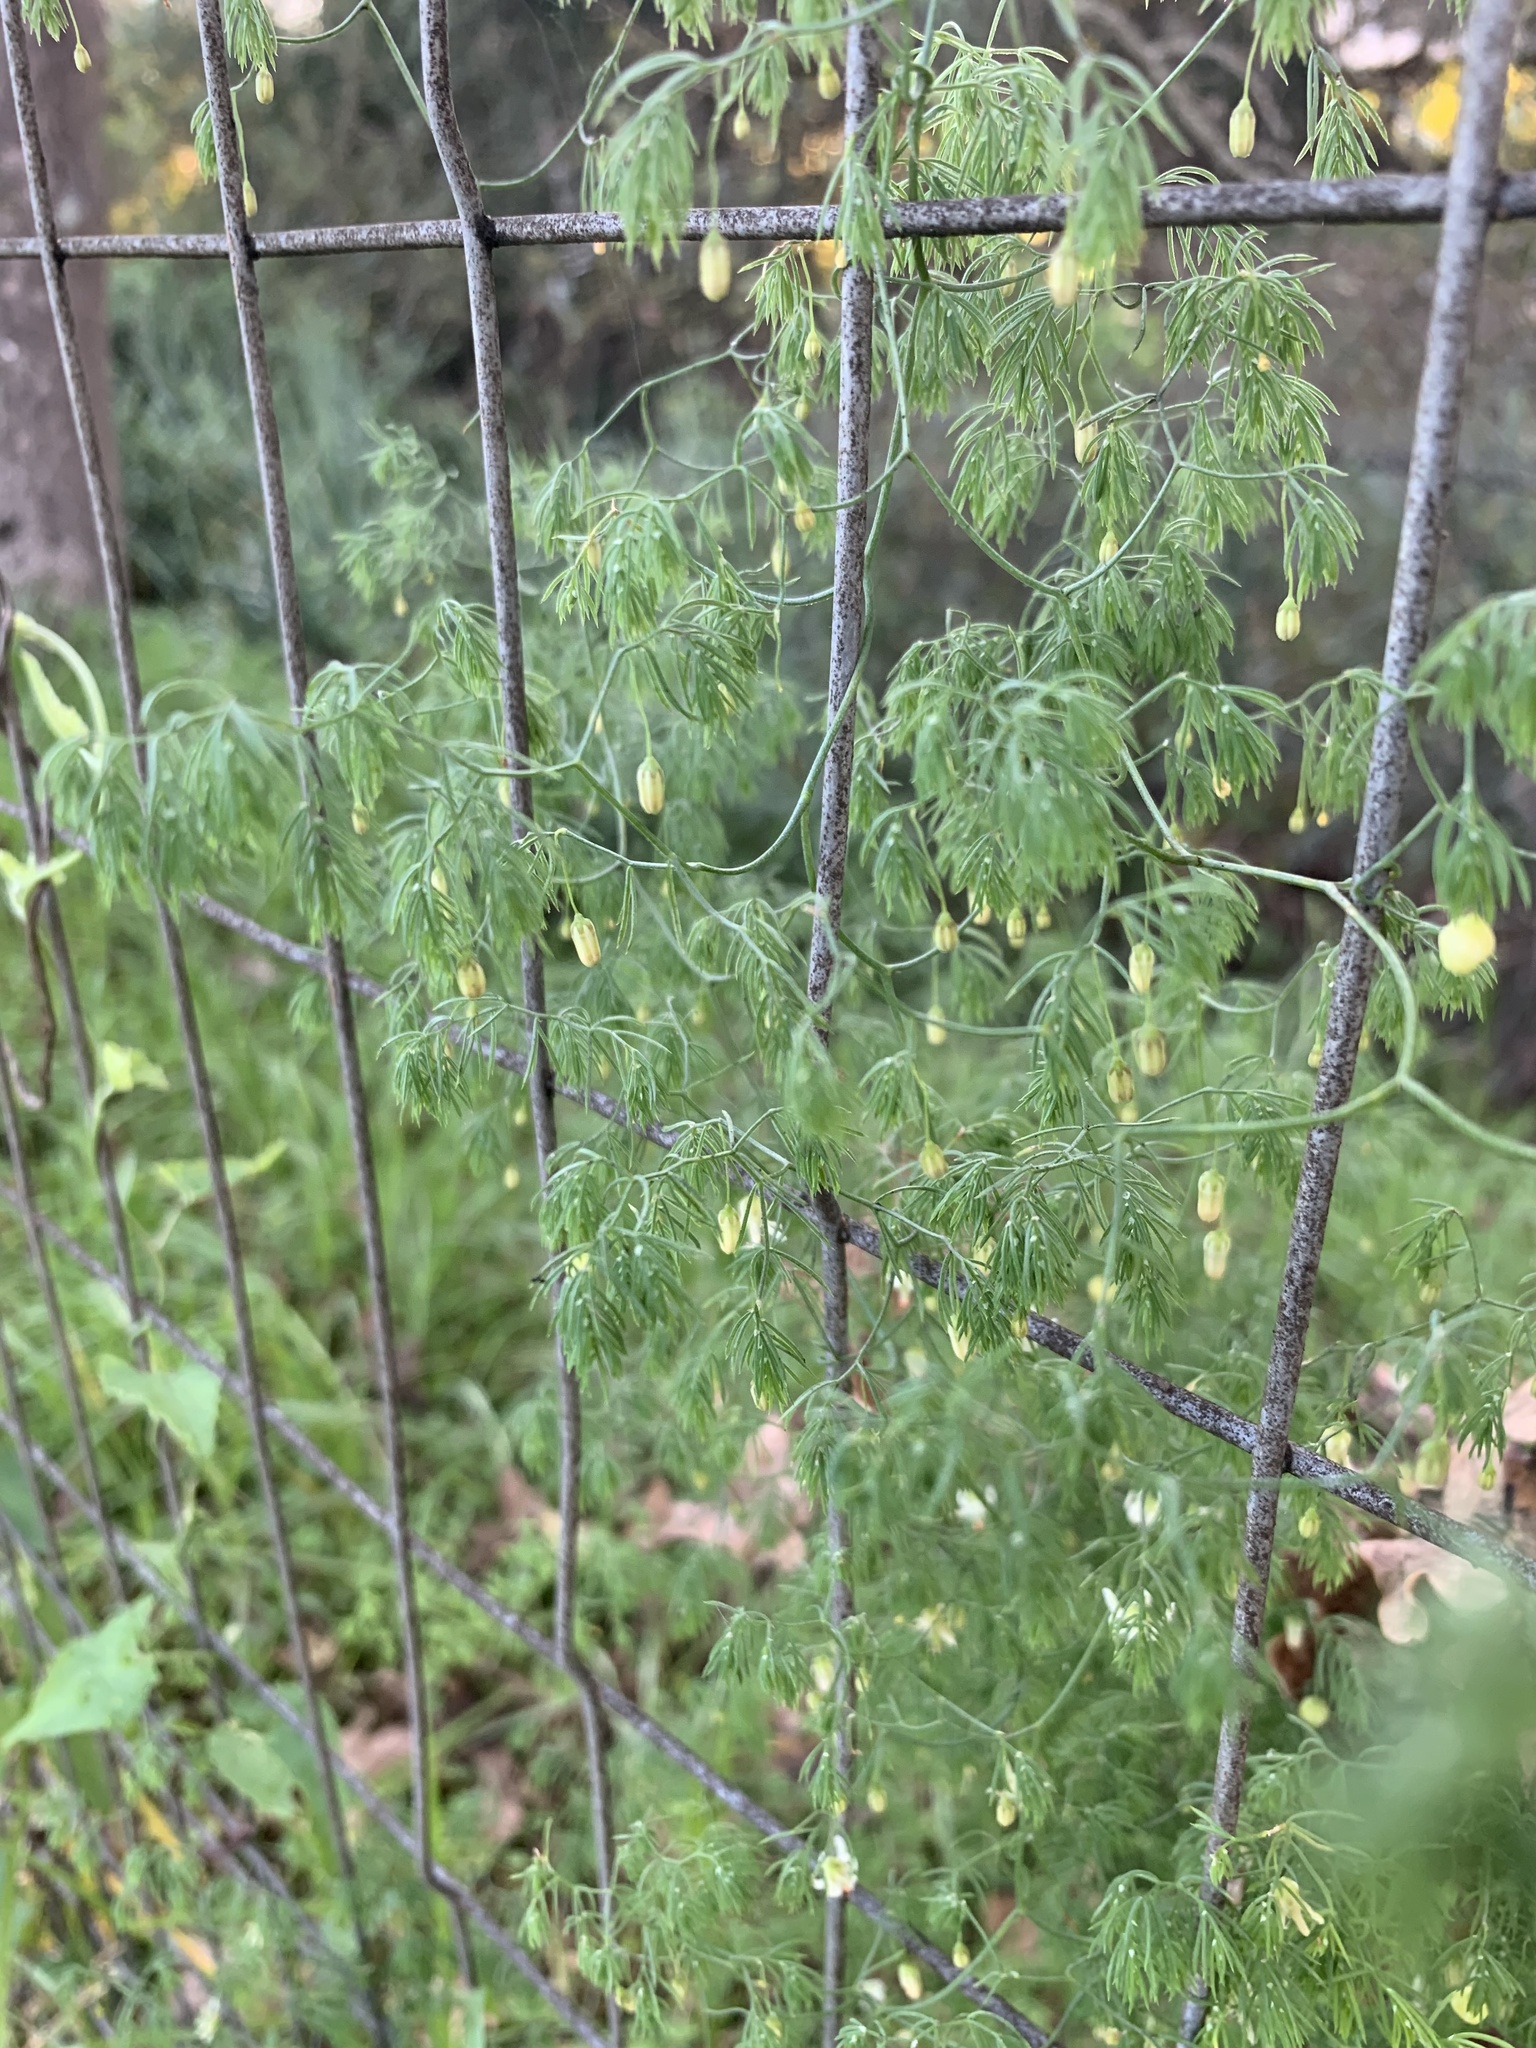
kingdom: Plantae
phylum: Tracheophyta
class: Liliopsida
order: Asparagales
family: Asparagaceae
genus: Asparagus
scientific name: Asparagus declinatus
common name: Bridal-creeper
